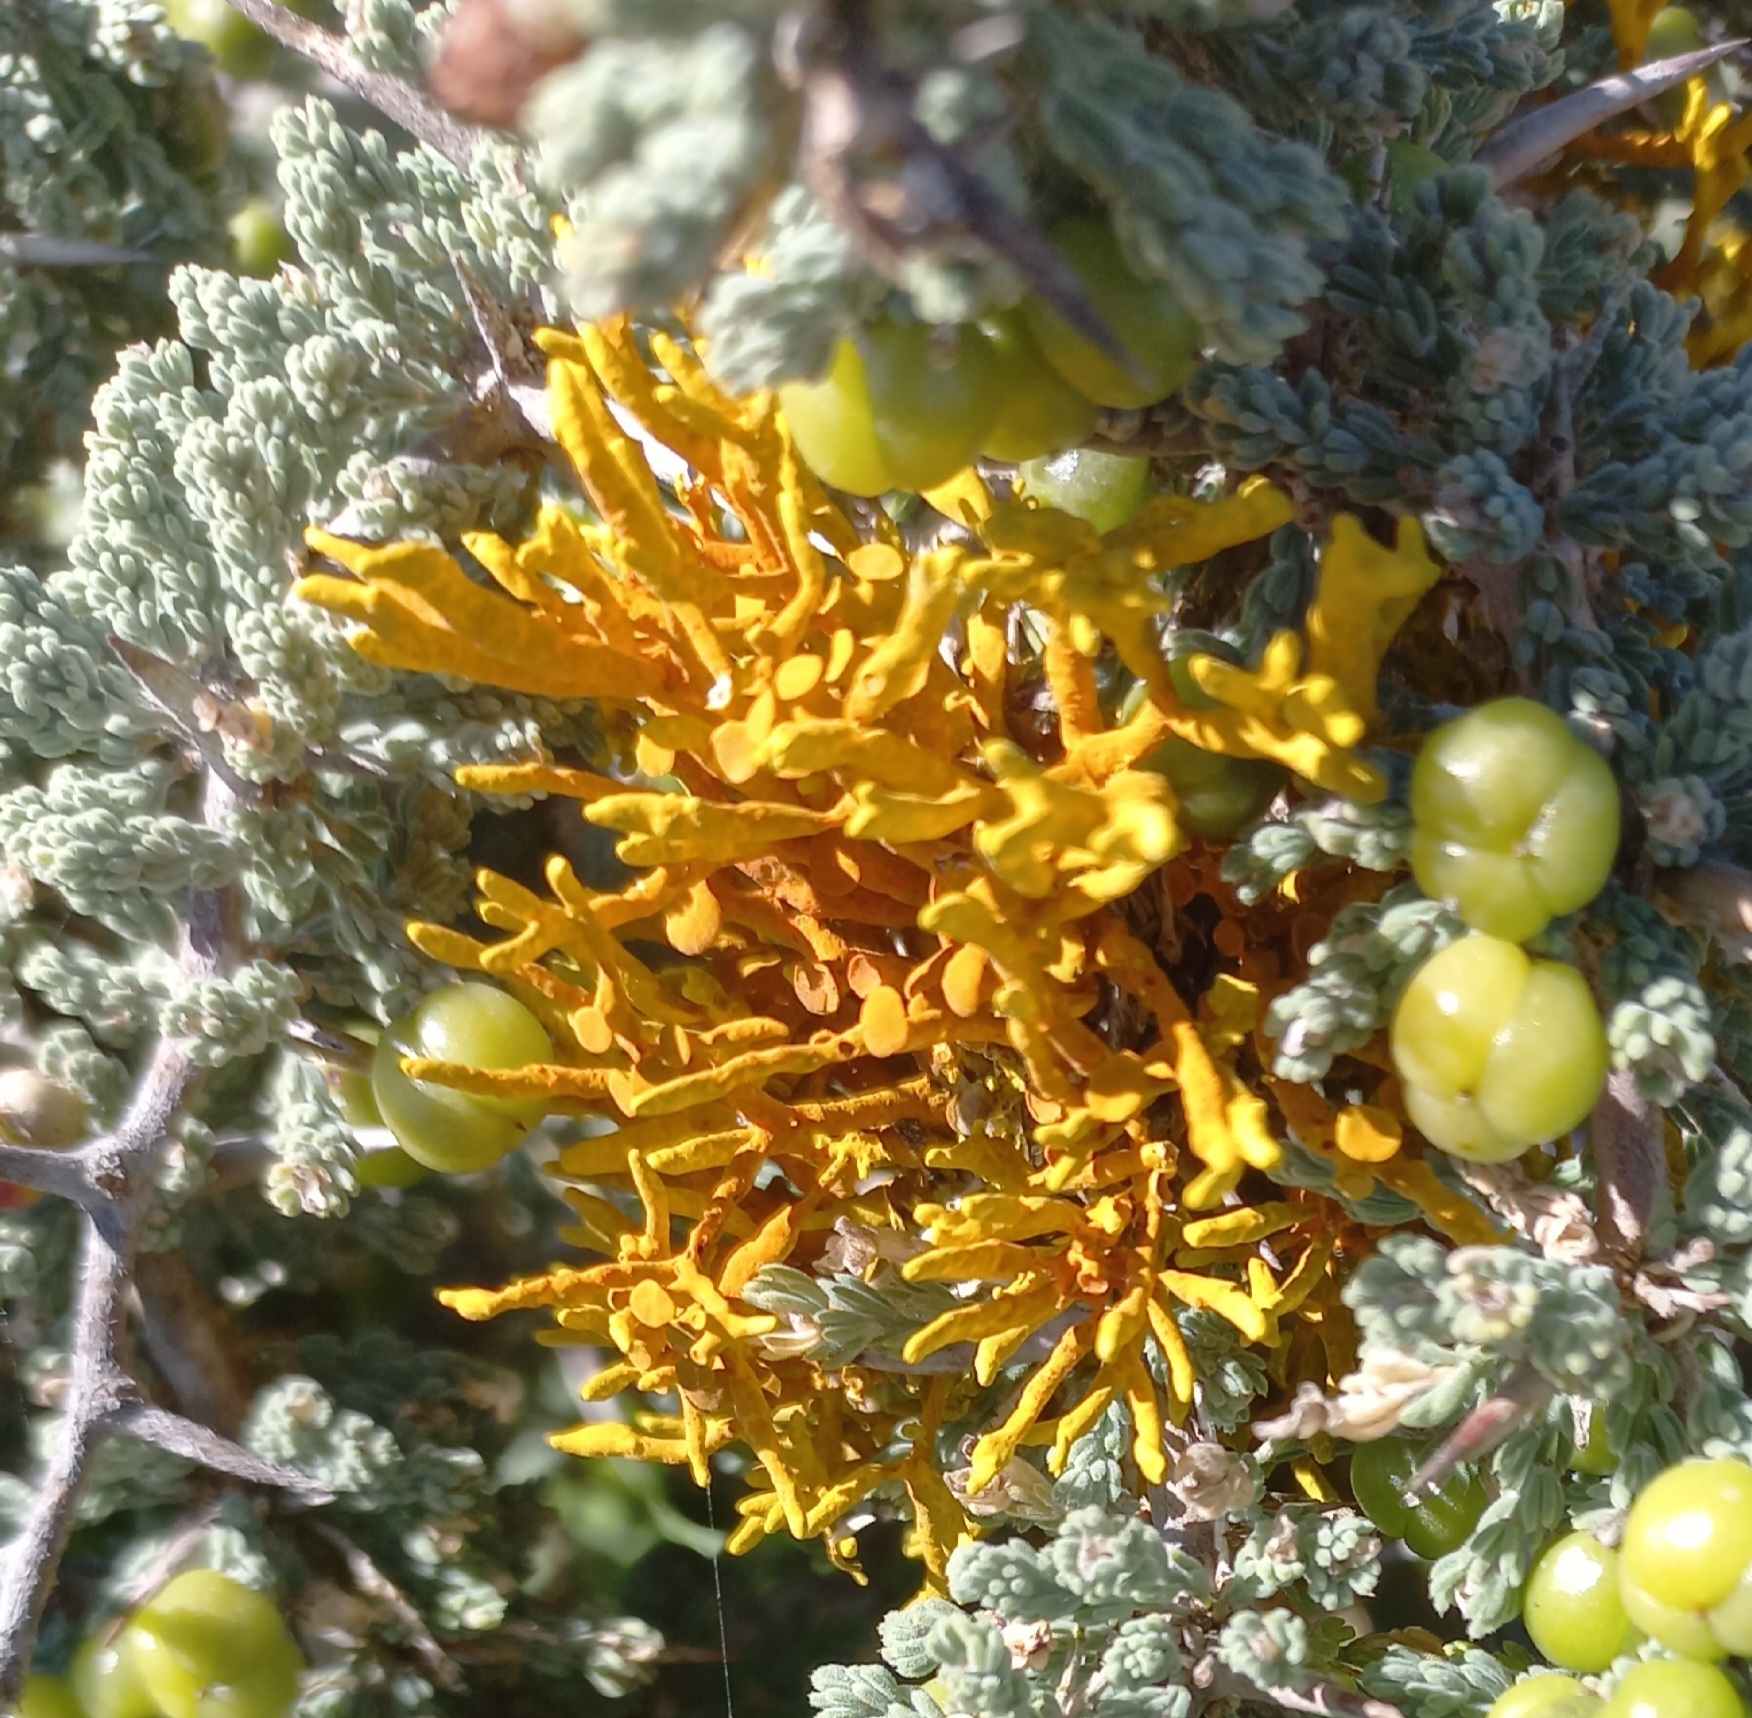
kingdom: Fungi
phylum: Ascomycota
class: Lecanoromycetes
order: Teloschistales
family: Teloschistaceae
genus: Dufourea
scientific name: Dufourea flammea
